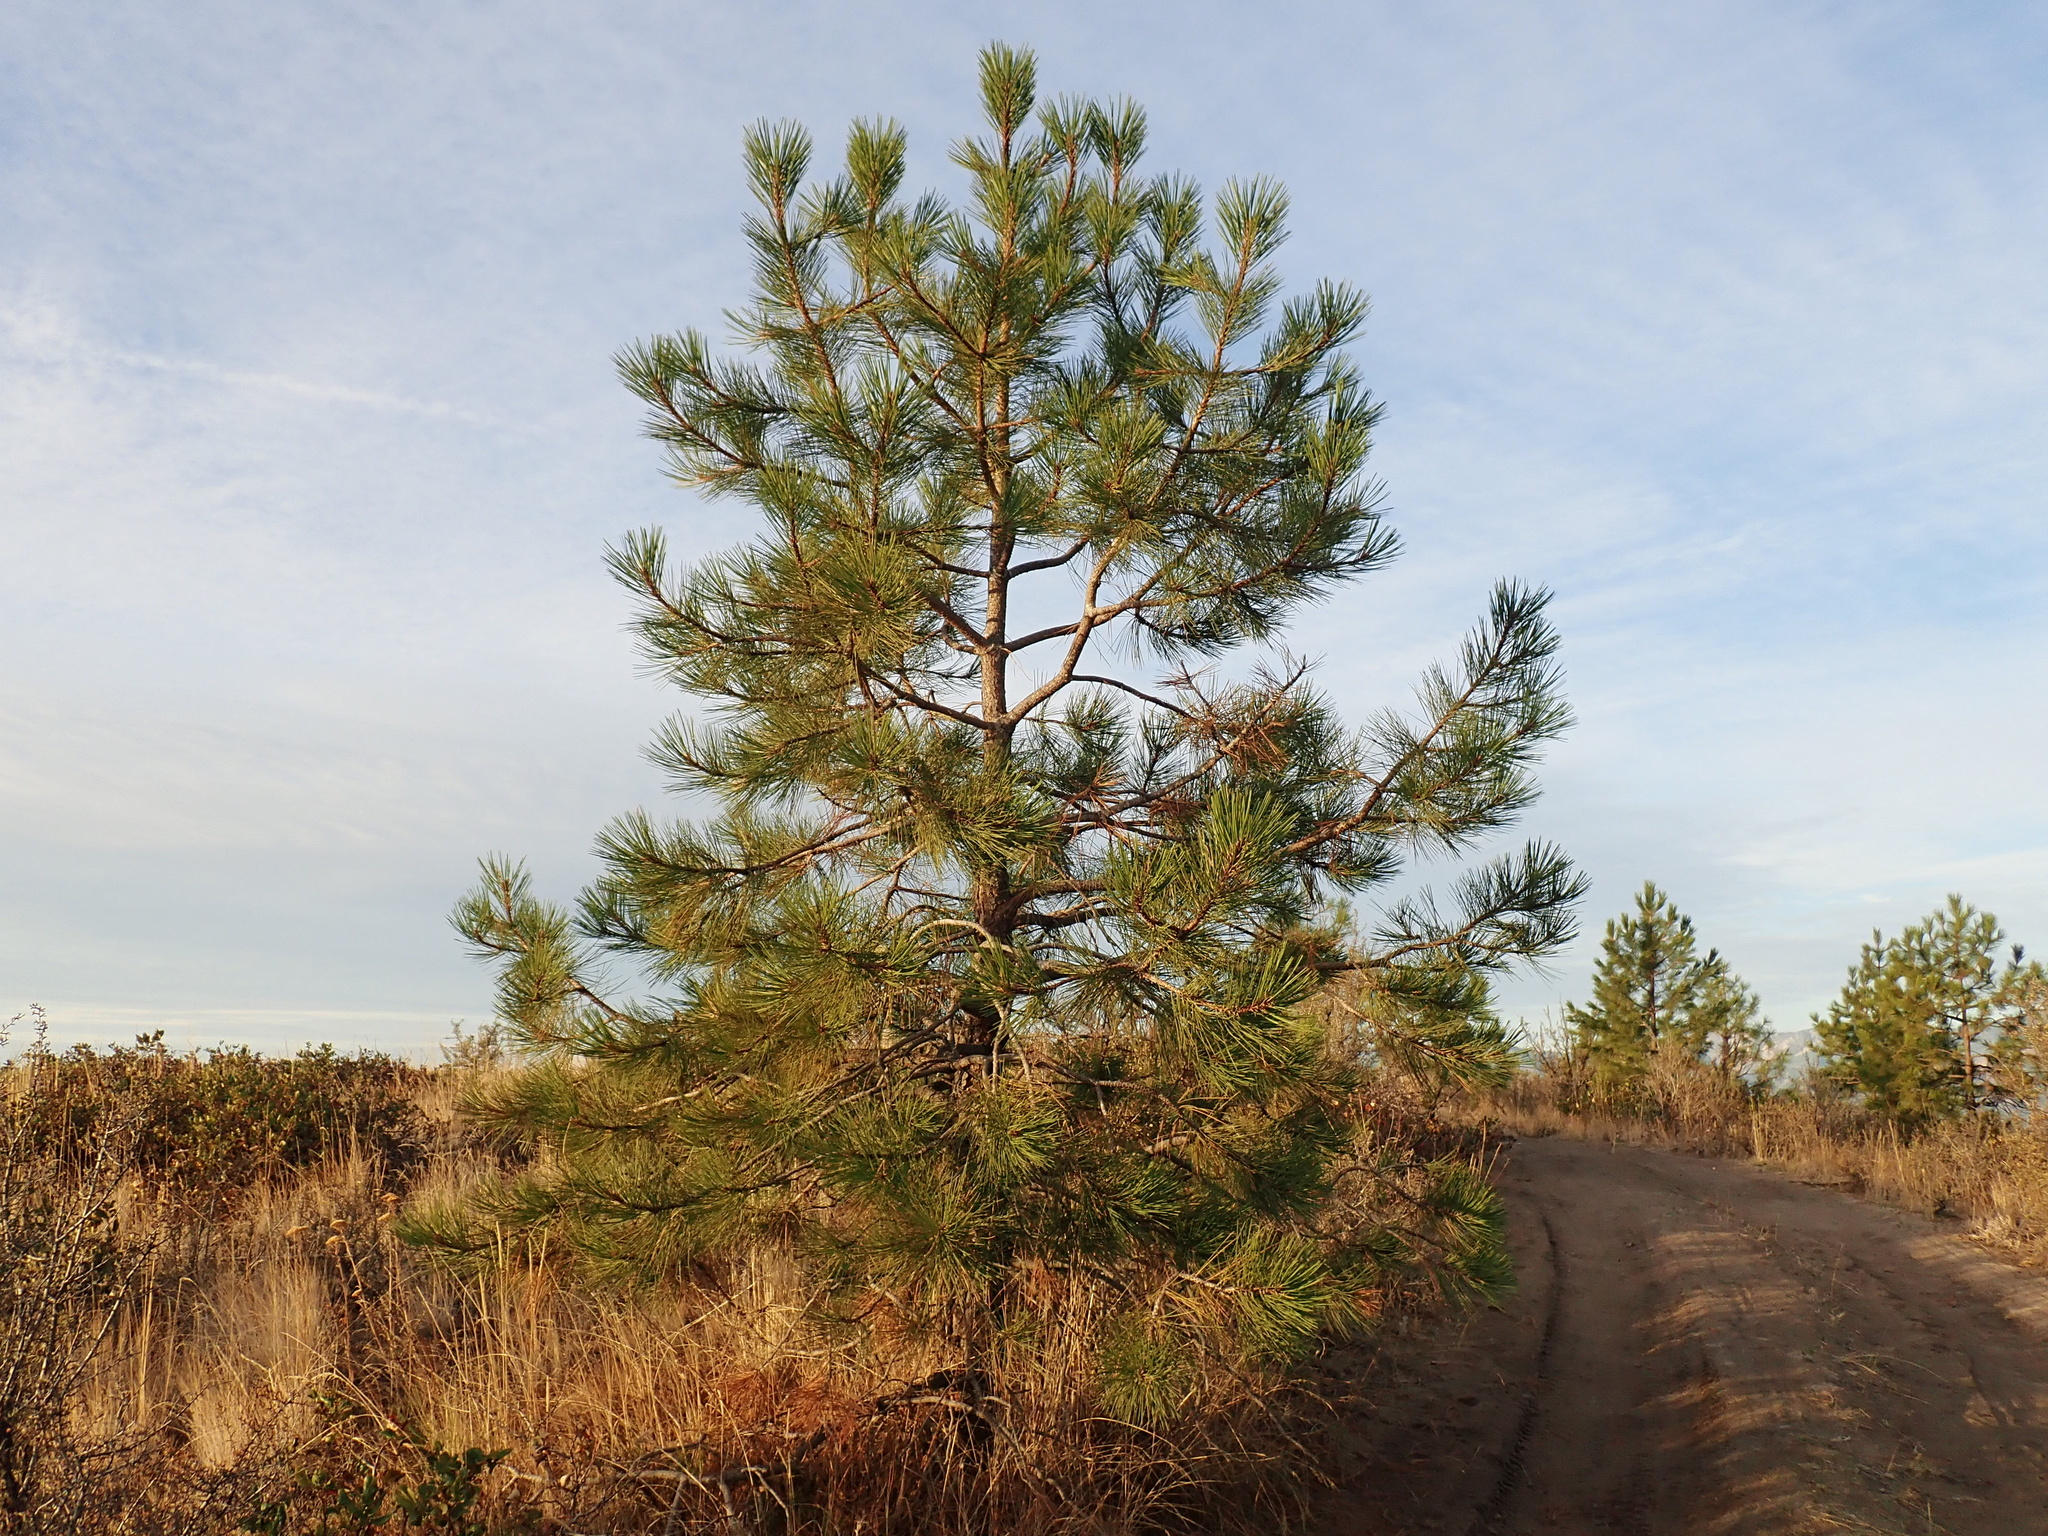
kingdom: Plantae
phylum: Tracheophyta
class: Pinopsida
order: Pinales
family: Pinaceae
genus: Pinus
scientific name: Pinus ponderosa
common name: Western yellow-pine
